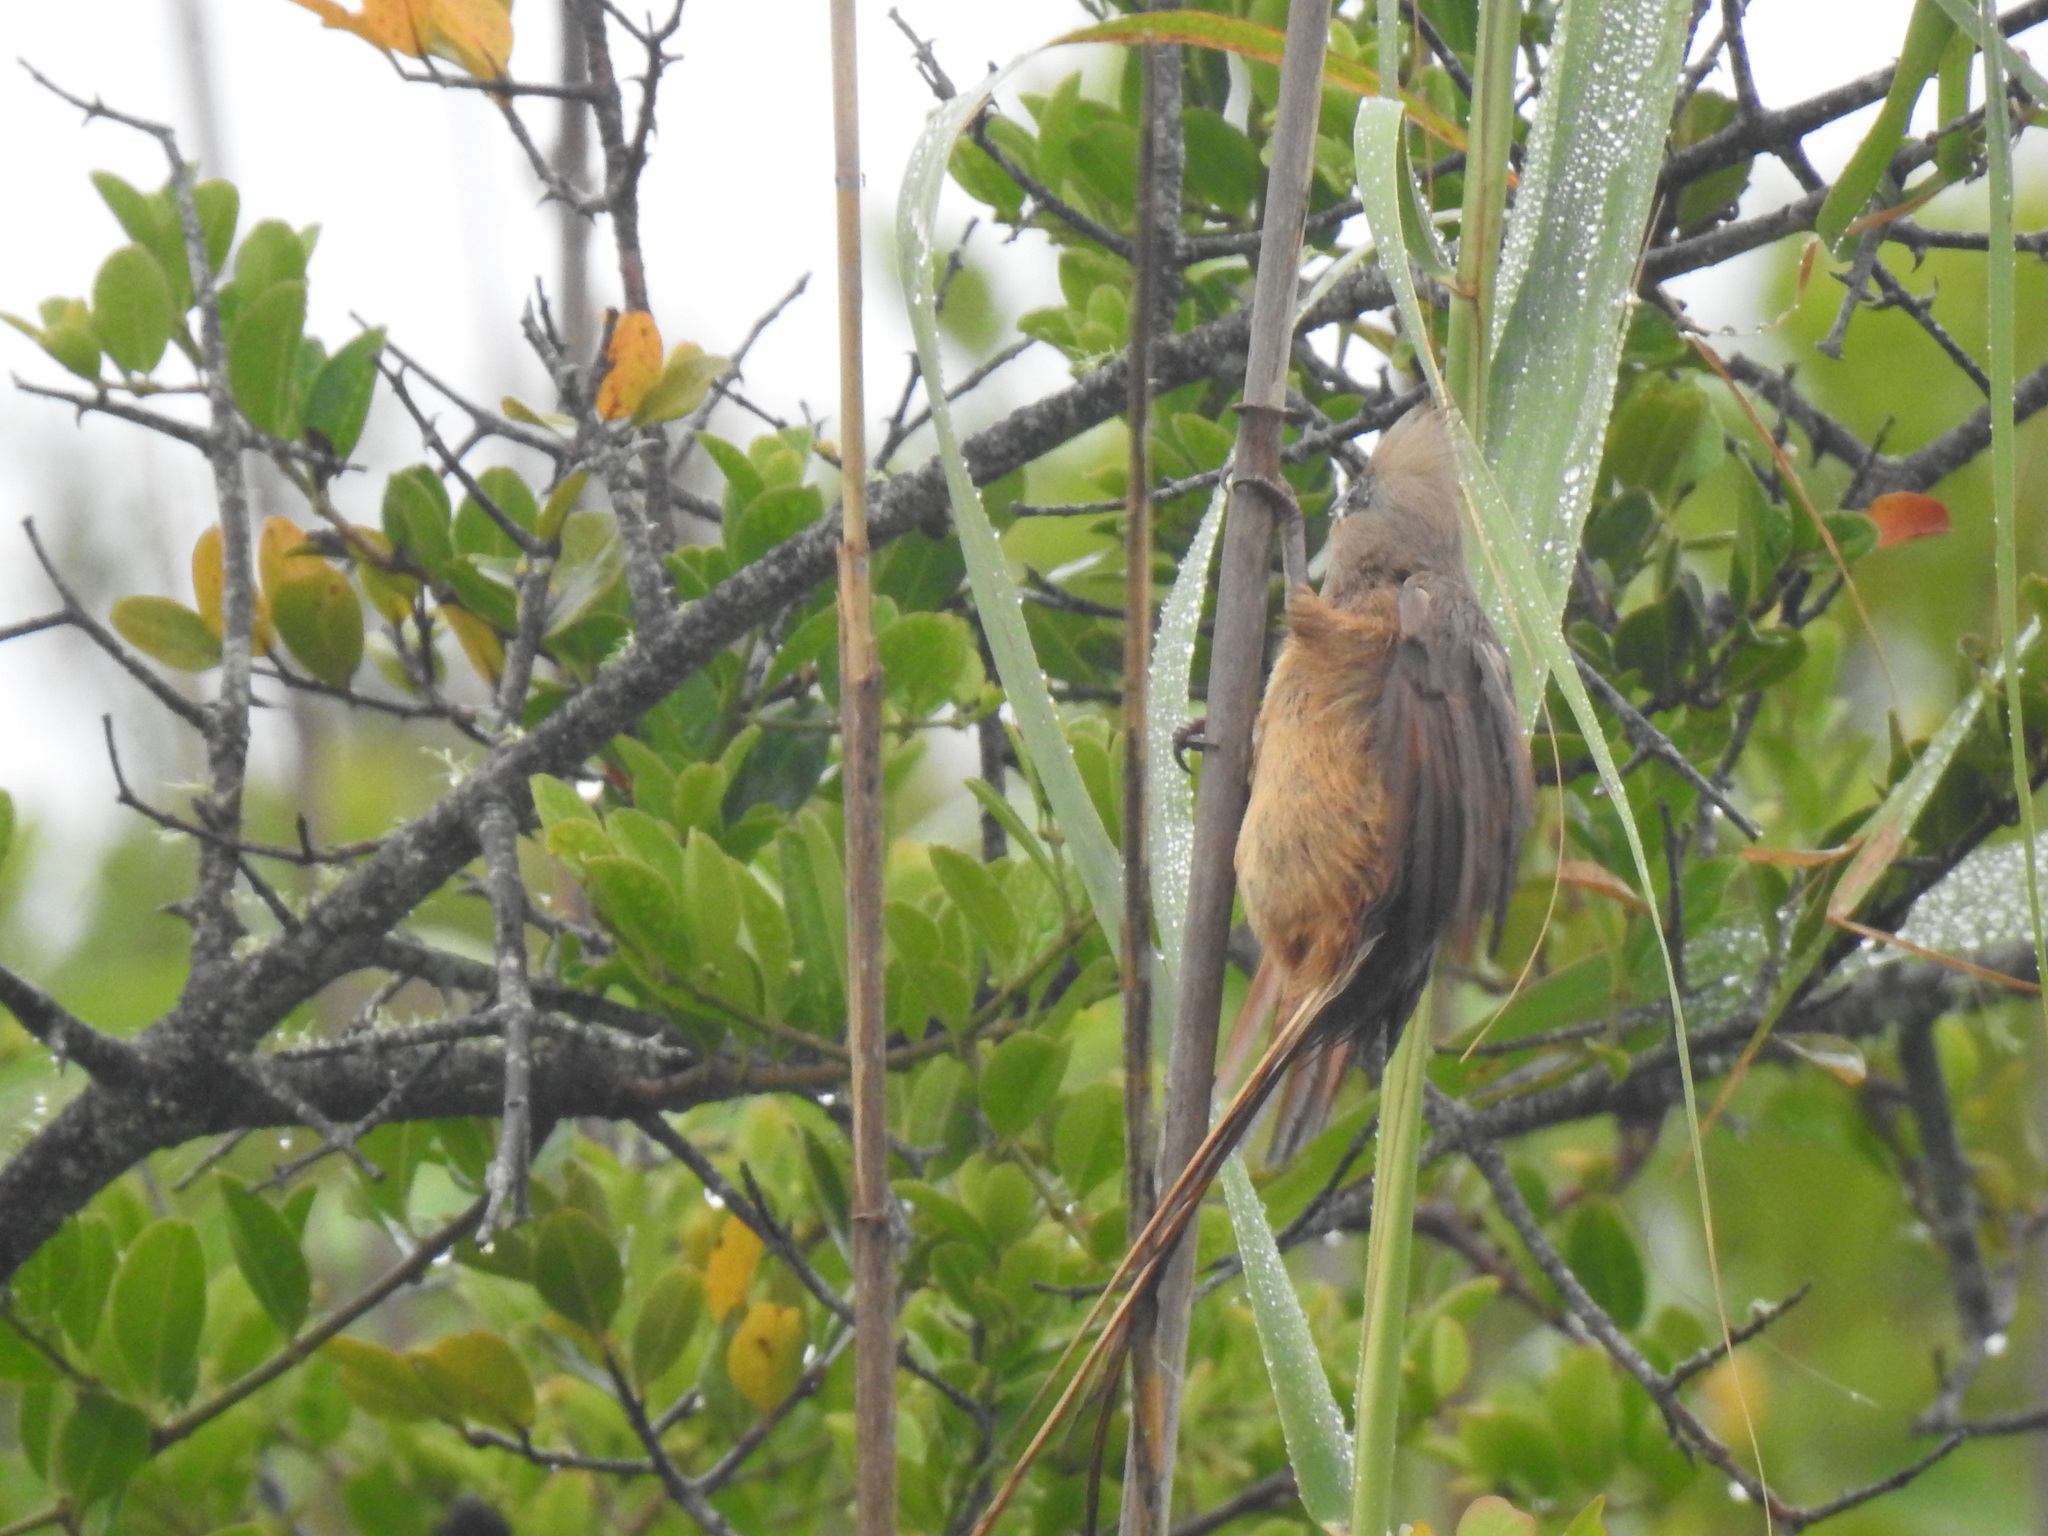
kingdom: Animalia
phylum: Chordata
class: Aves
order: Coliiformes
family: Coliidae
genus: Colius
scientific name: Colius striatus
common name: Speckled mousebird
